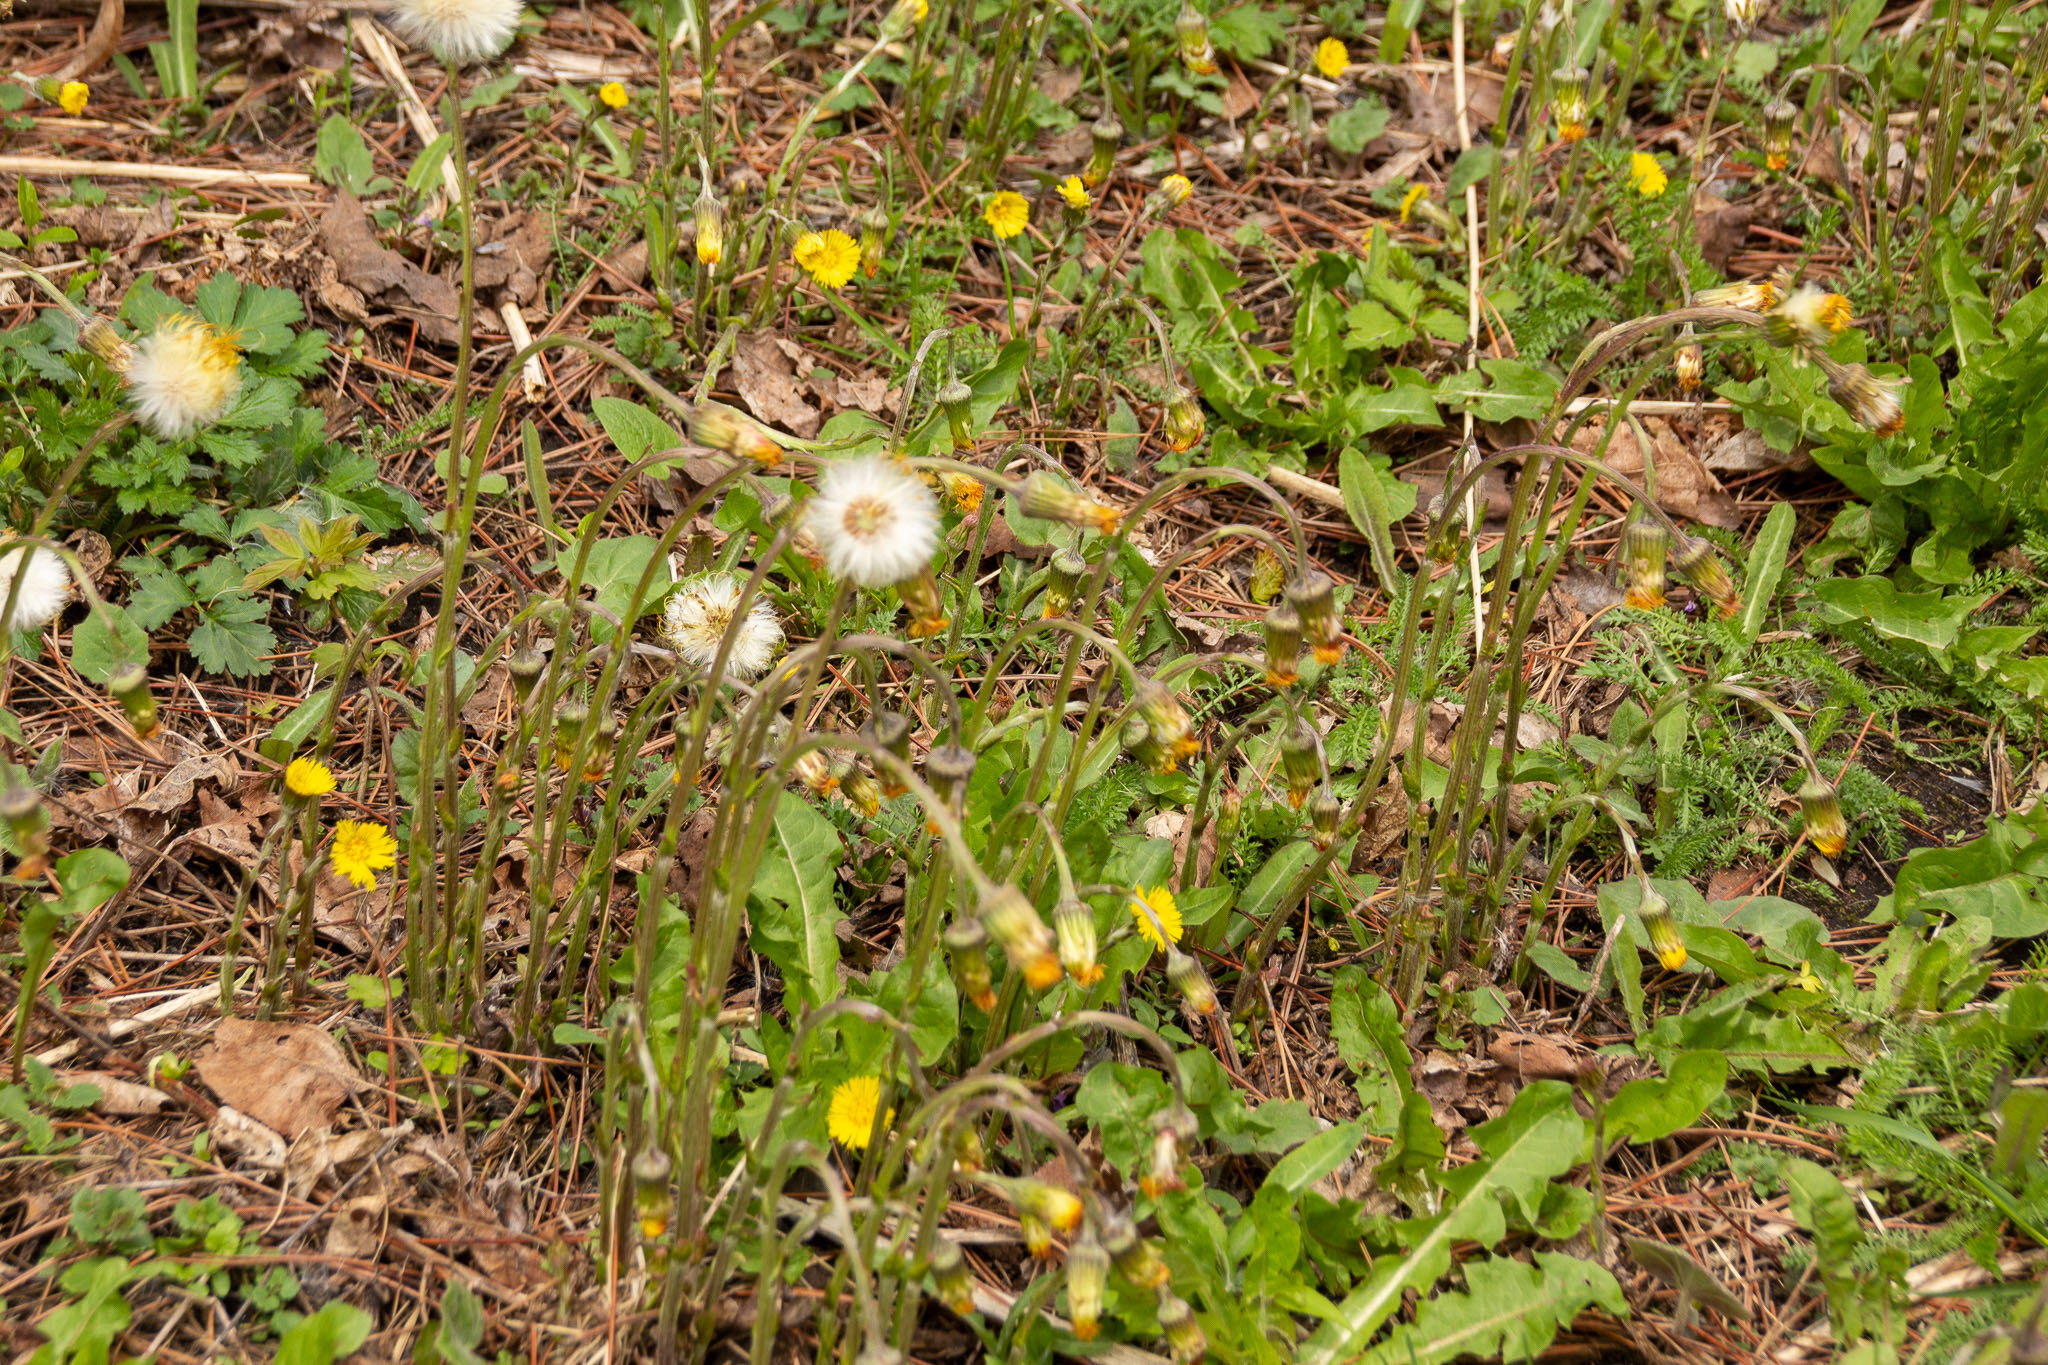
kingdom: Plantae
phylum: Tracheophyta
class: Magnoliopsida
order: Asterales
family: Asteraceae
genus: Tussilago
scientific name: Tussilago farfara
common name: Coltsfoot
